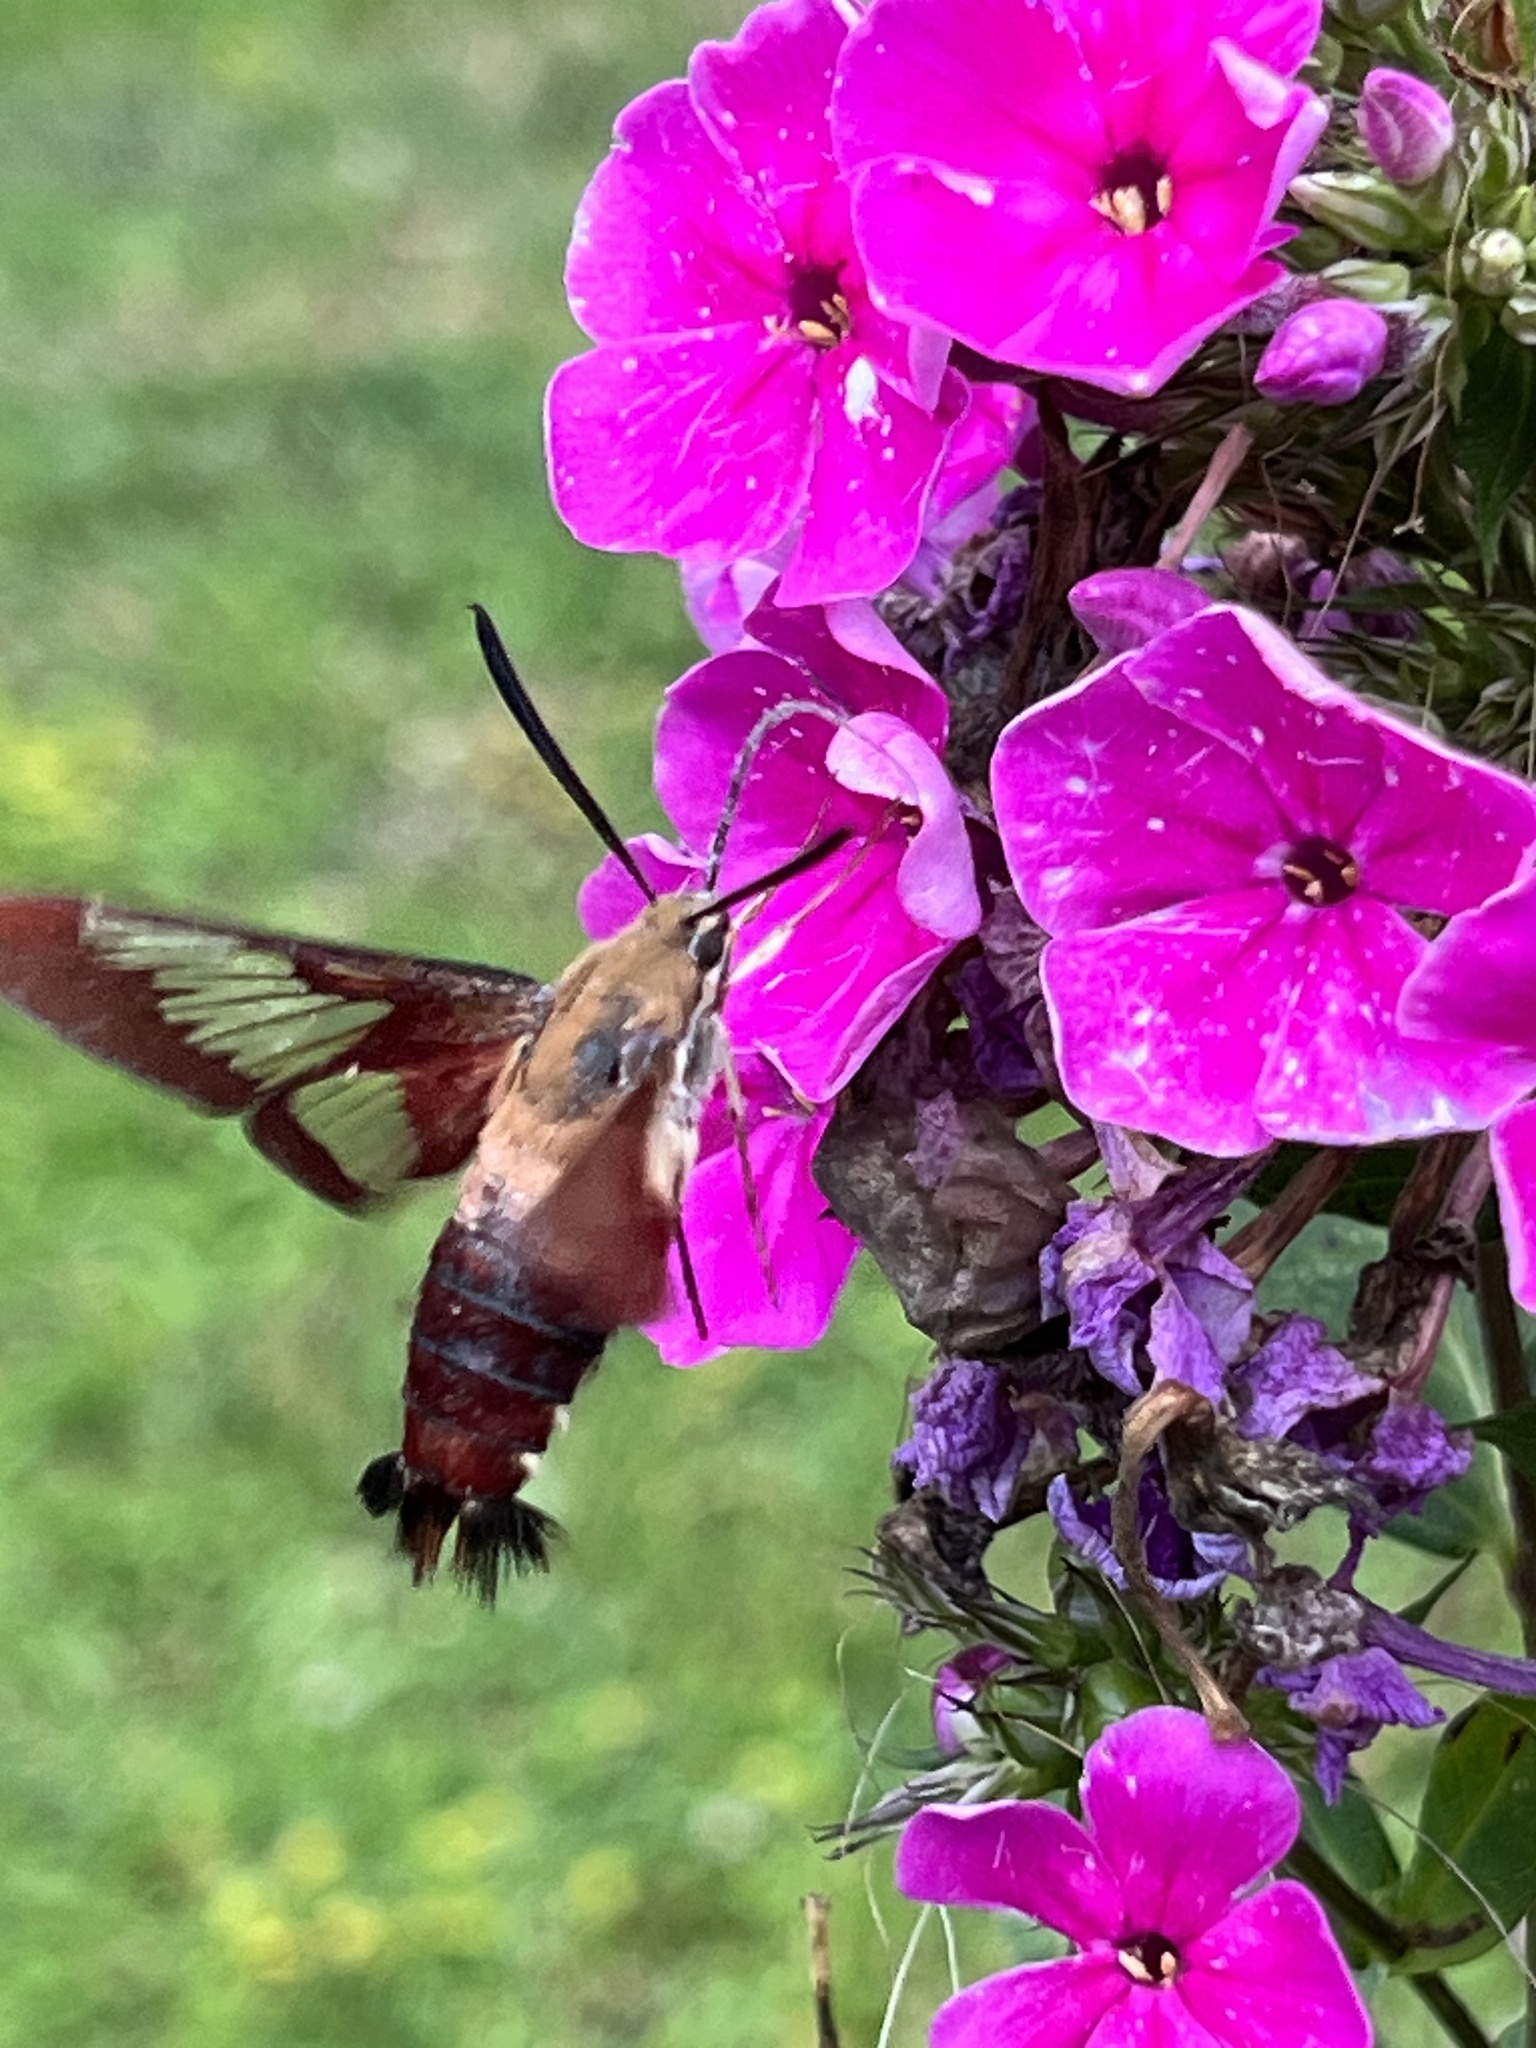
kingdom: Animalia
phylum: Arthropoda
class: Insecta
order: Lepidoptera
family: Sphingidae
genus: Hemaris
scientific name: Hemaris thysbe
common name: Common clear-wing
